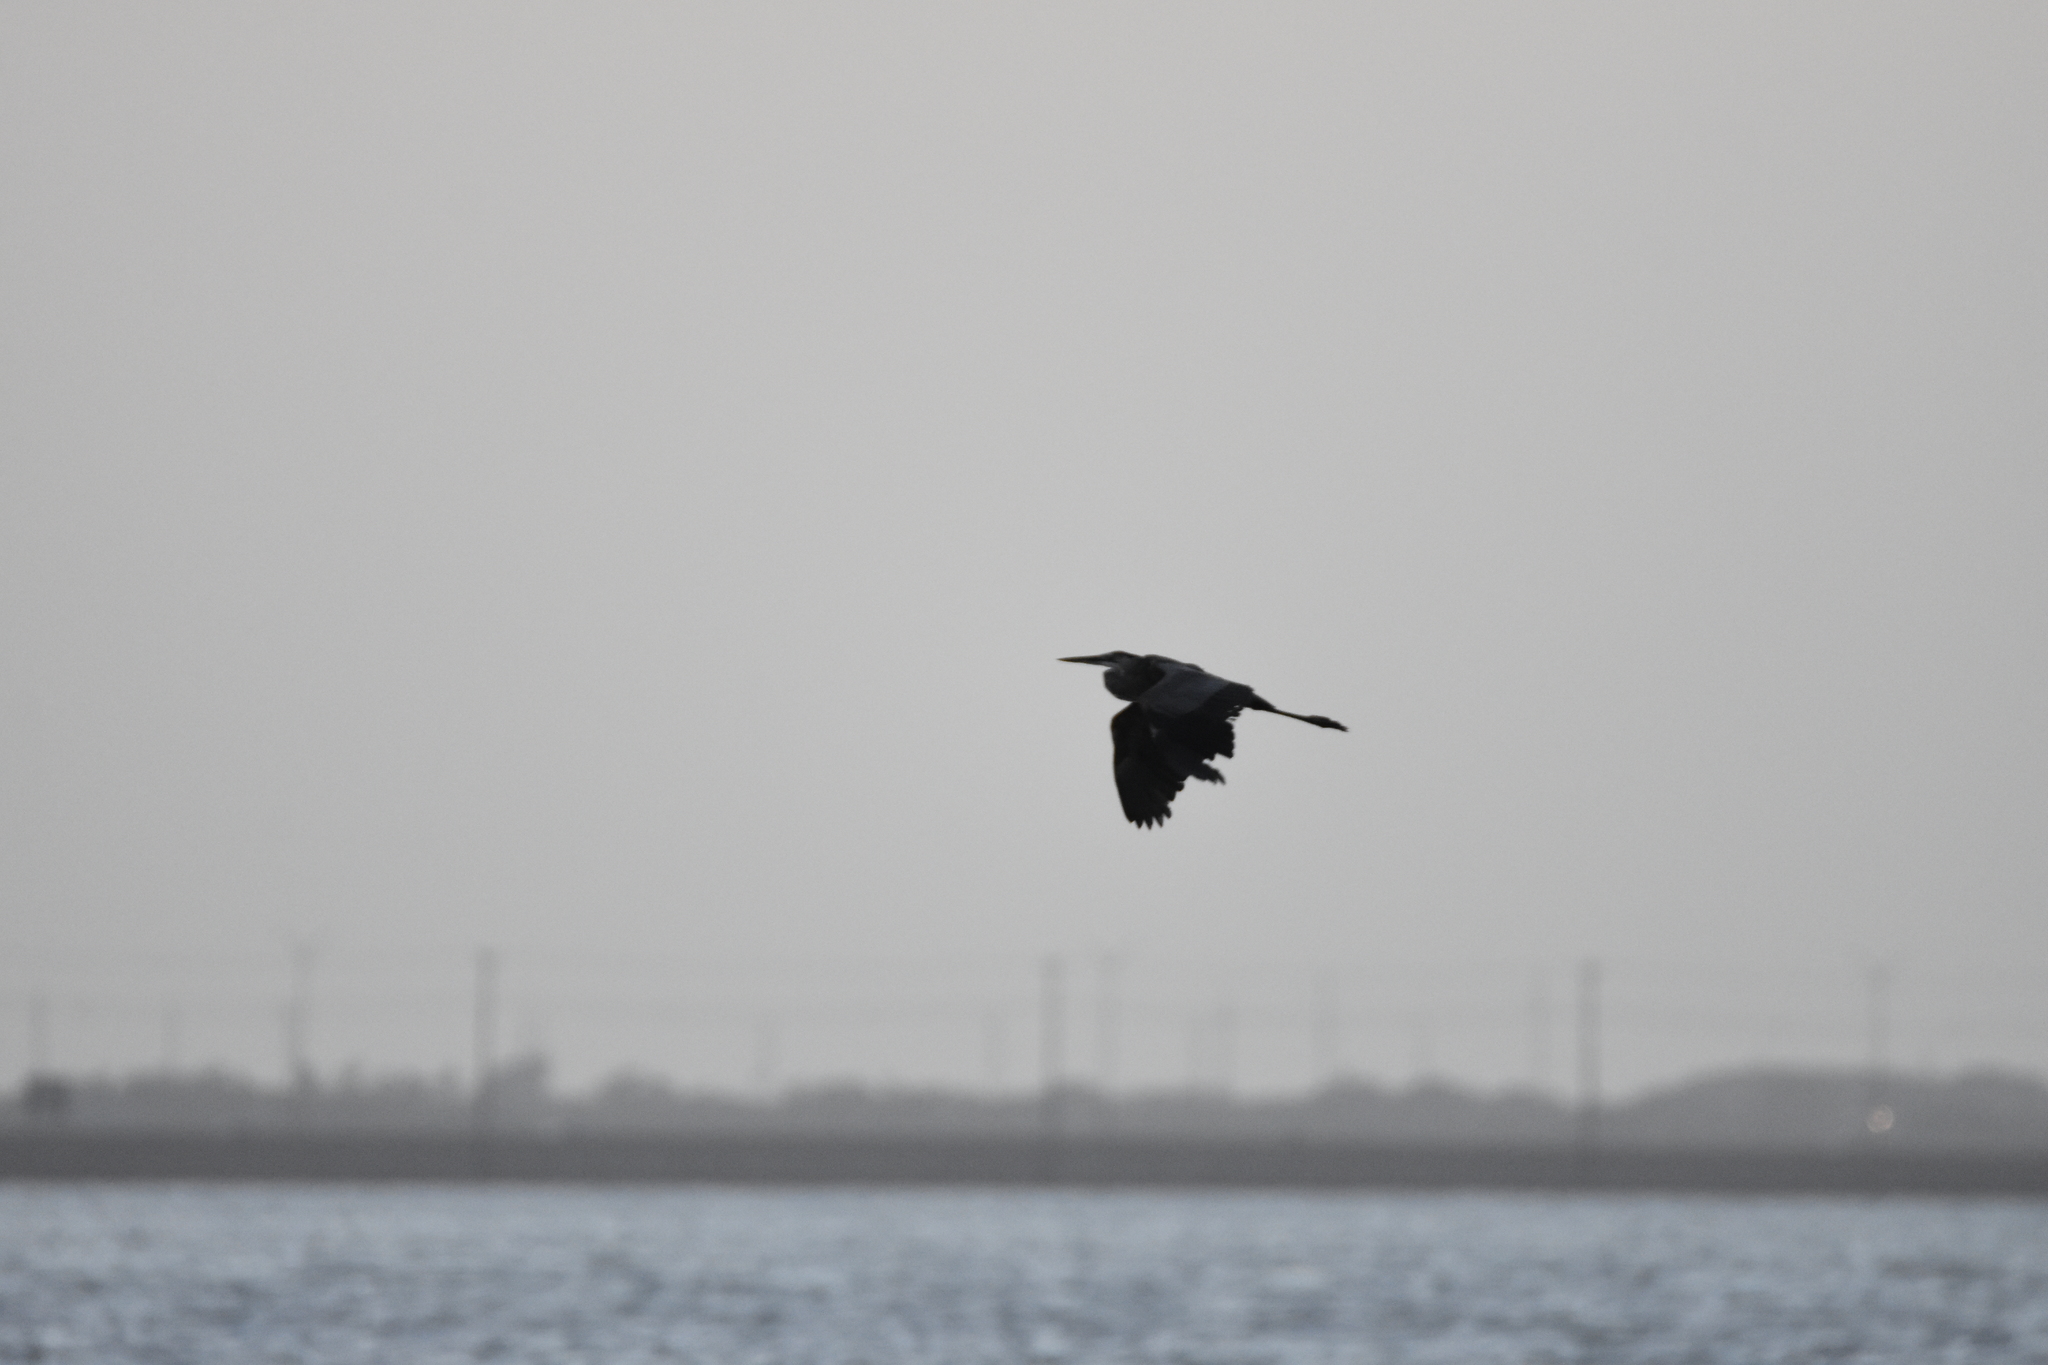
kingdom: Animalia
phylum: Chordata
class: Aves
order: Pelecaniformes
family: Ardeidae
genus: Ardea
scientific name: Ardea herodias
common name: Great blue heron
